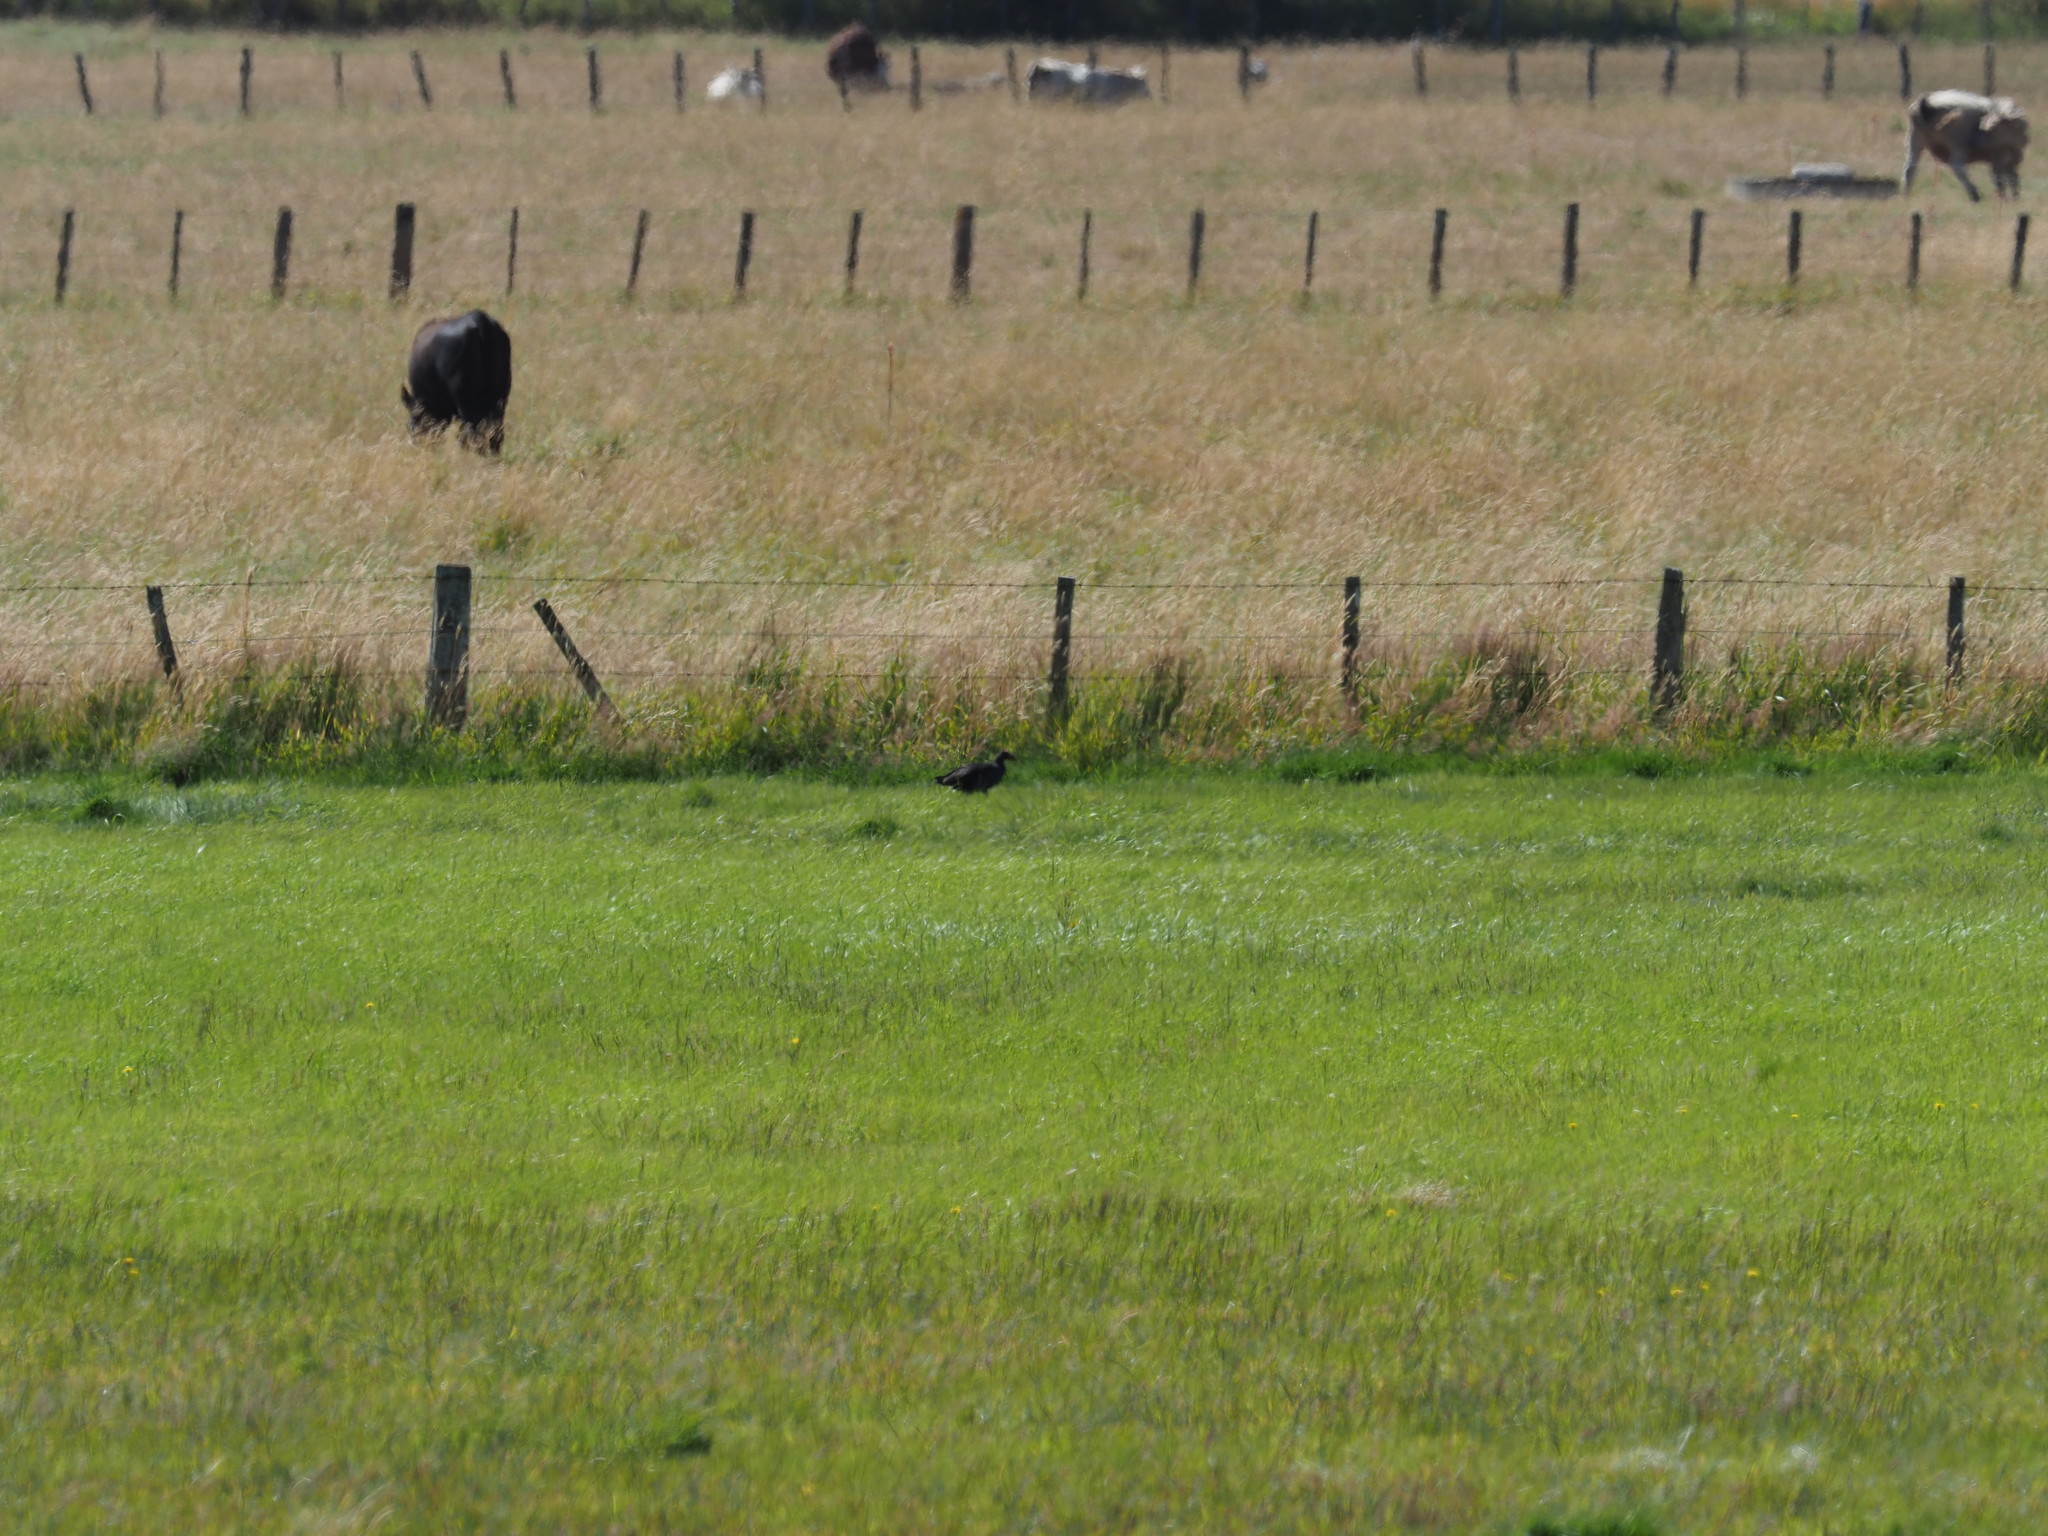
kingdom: Animalia
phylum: Chordata
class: Aves
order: Gruiformes
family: Rallidae
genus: Porphyrio
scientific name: Porphyrio melanotus
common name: Australasian swamphen
